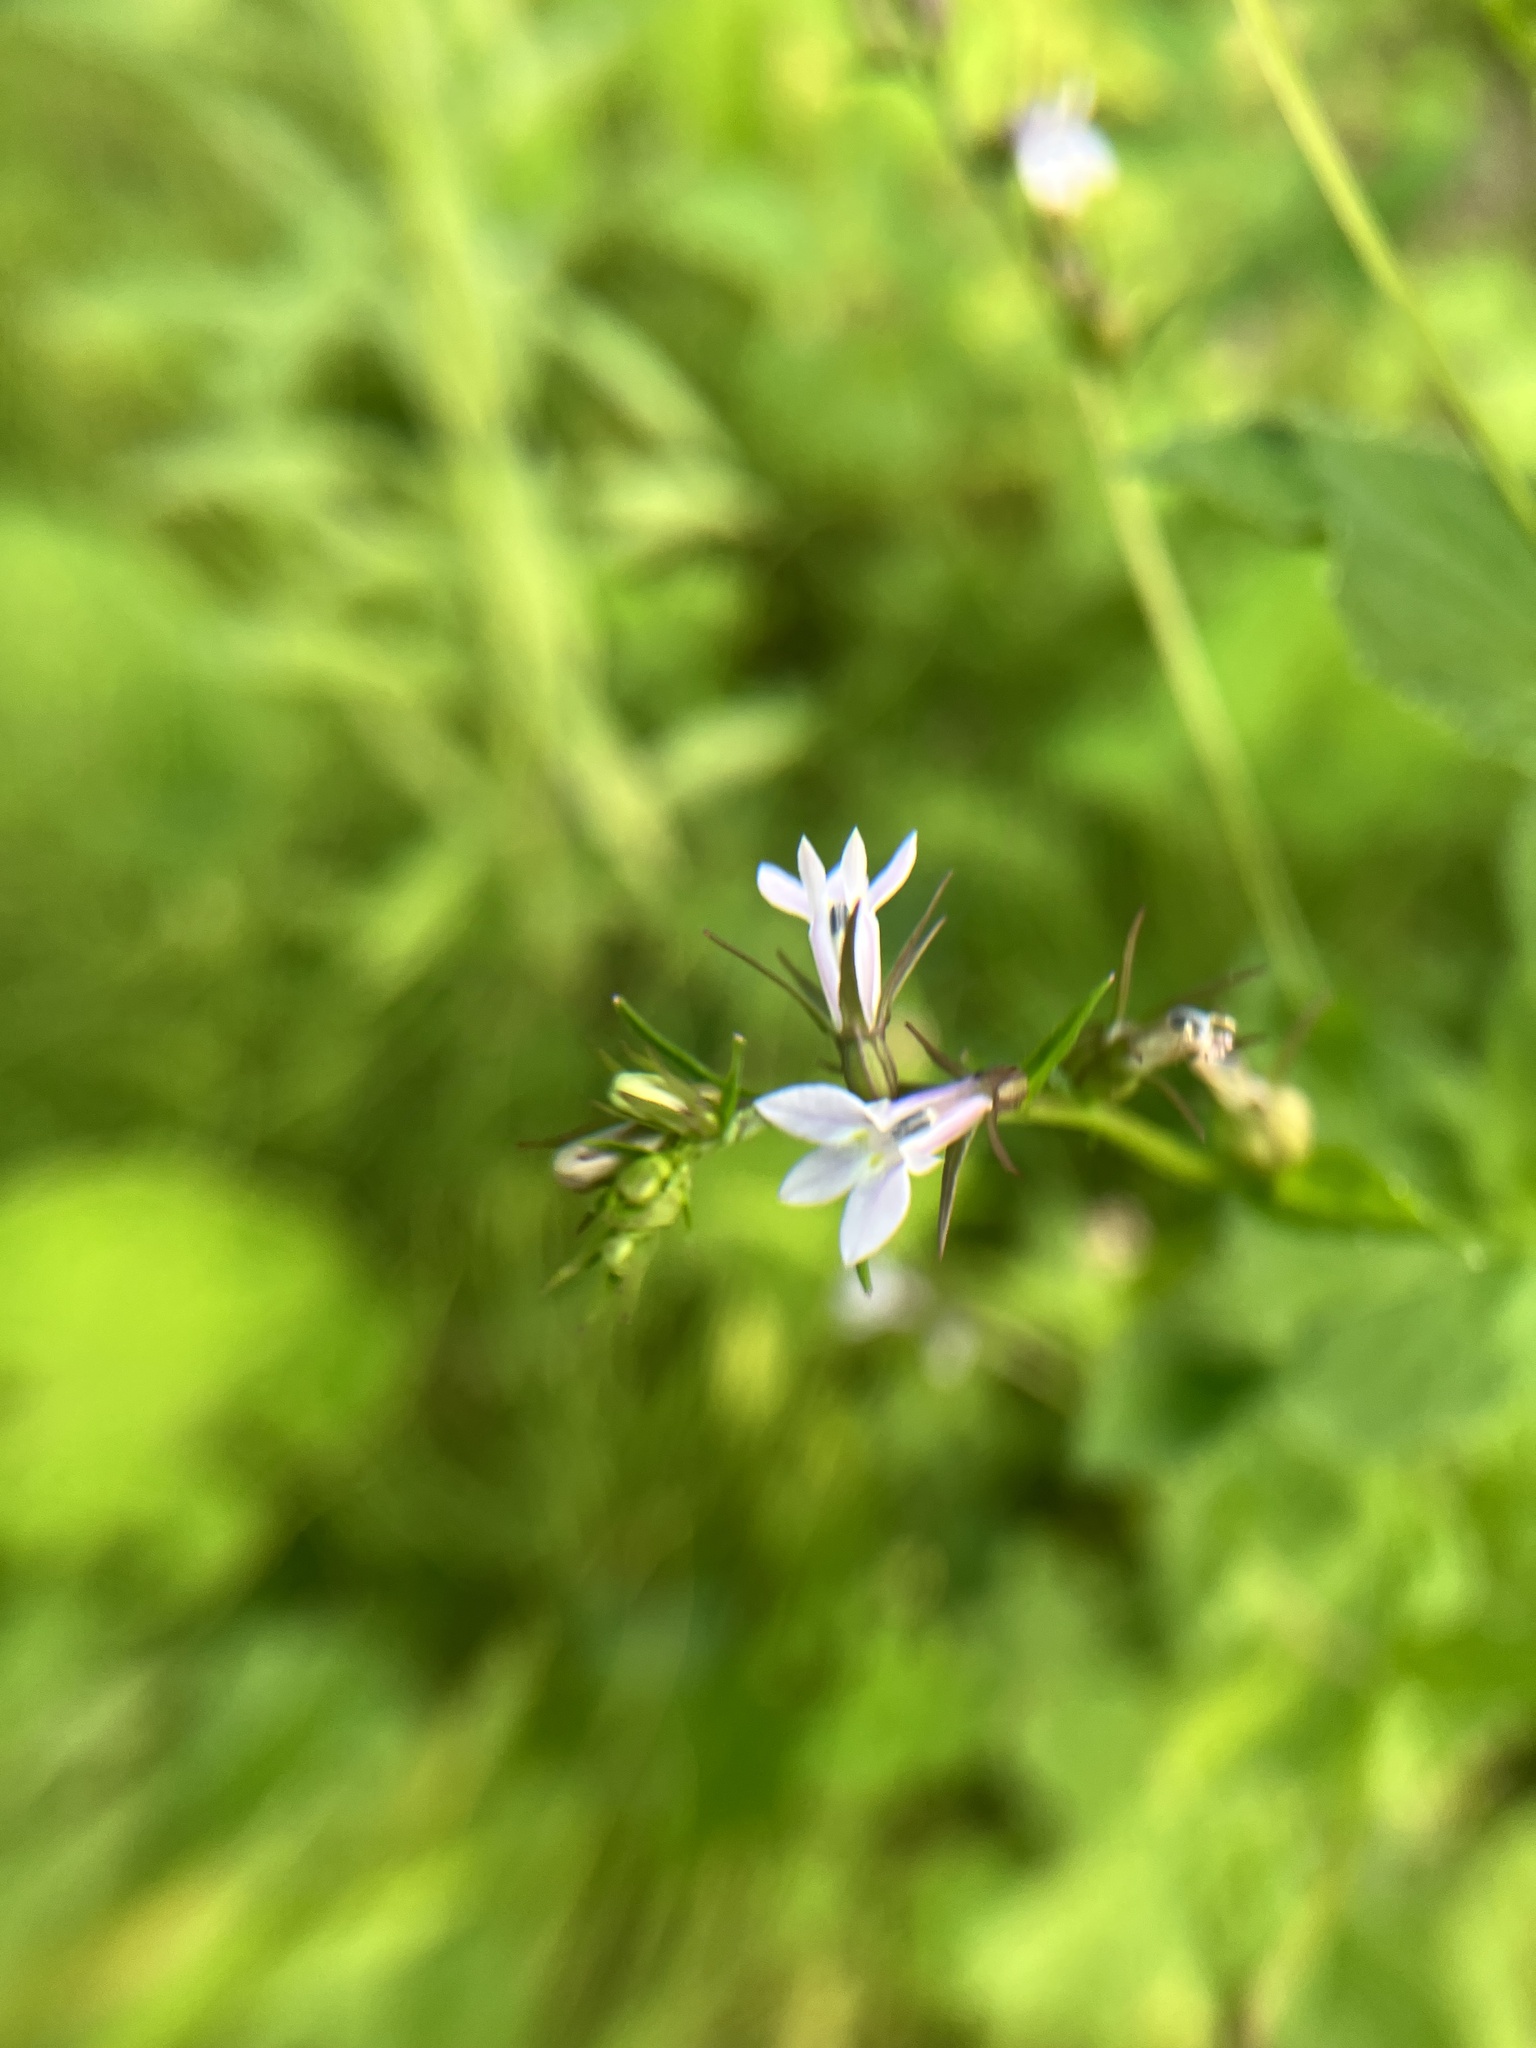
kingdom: Plantae
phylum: Tracheophyta
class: Magnoliopsida
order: Asterales
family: Campanulaceae
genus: Lobelia
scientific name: Lobelia inflata
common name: Indian tobacco
